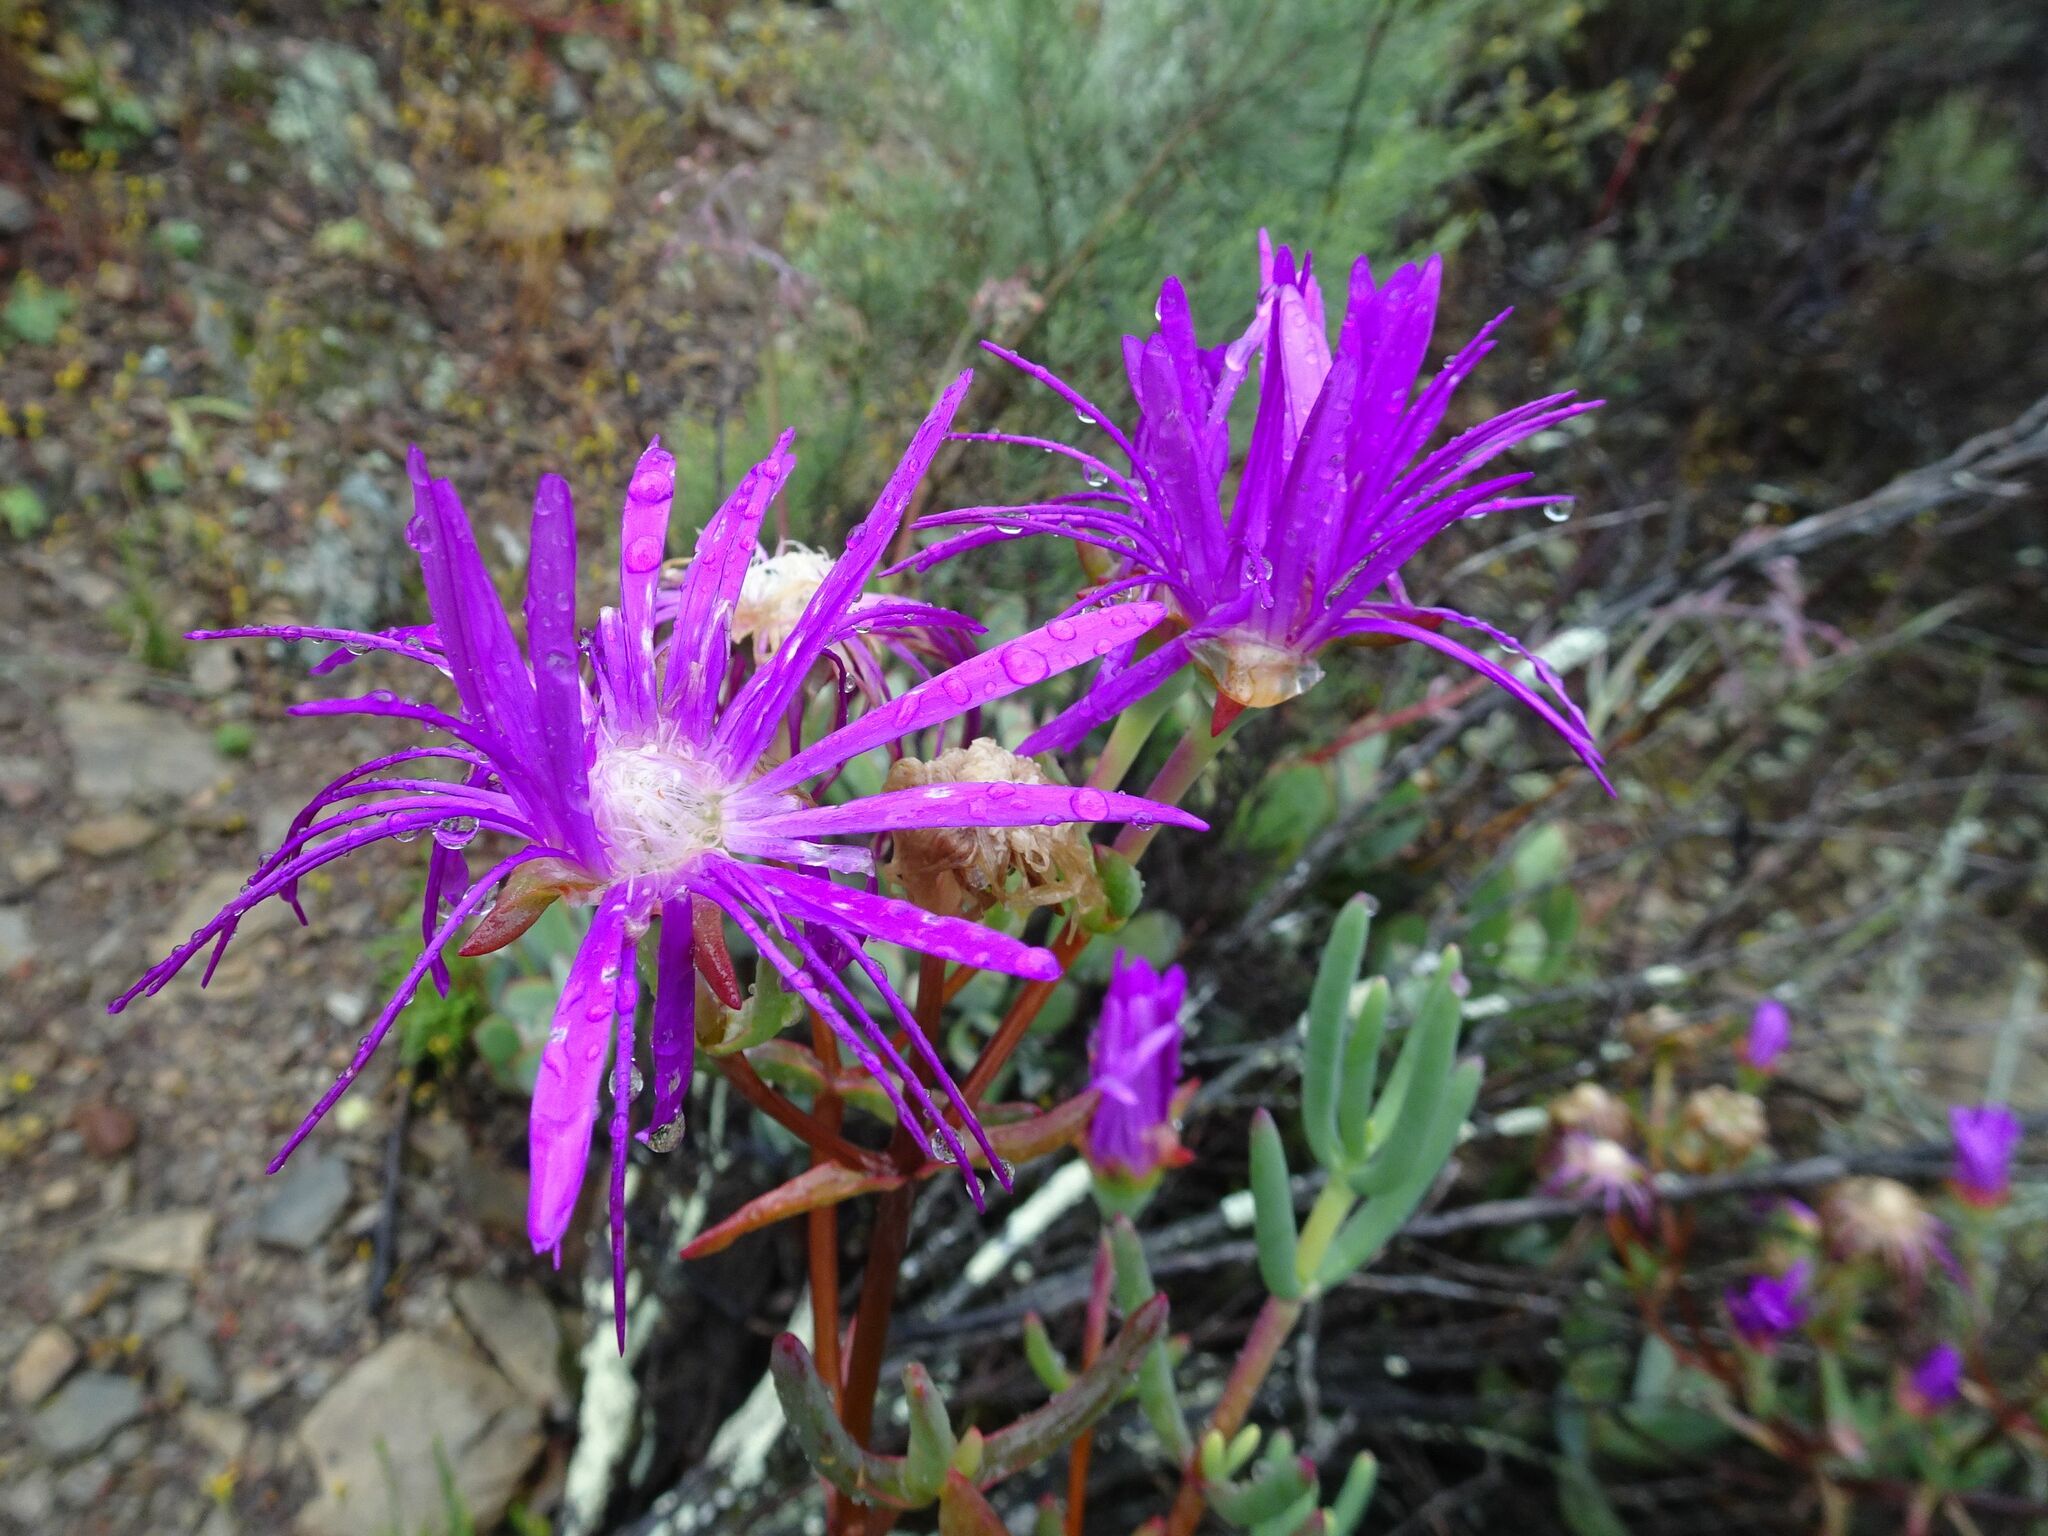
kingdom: Plantae
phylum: Tracheophyta
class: Magnoliopsida
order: Caryophyllales
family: Aizoaceae
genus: Lampranthus
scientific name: Lampranthus haworthii
